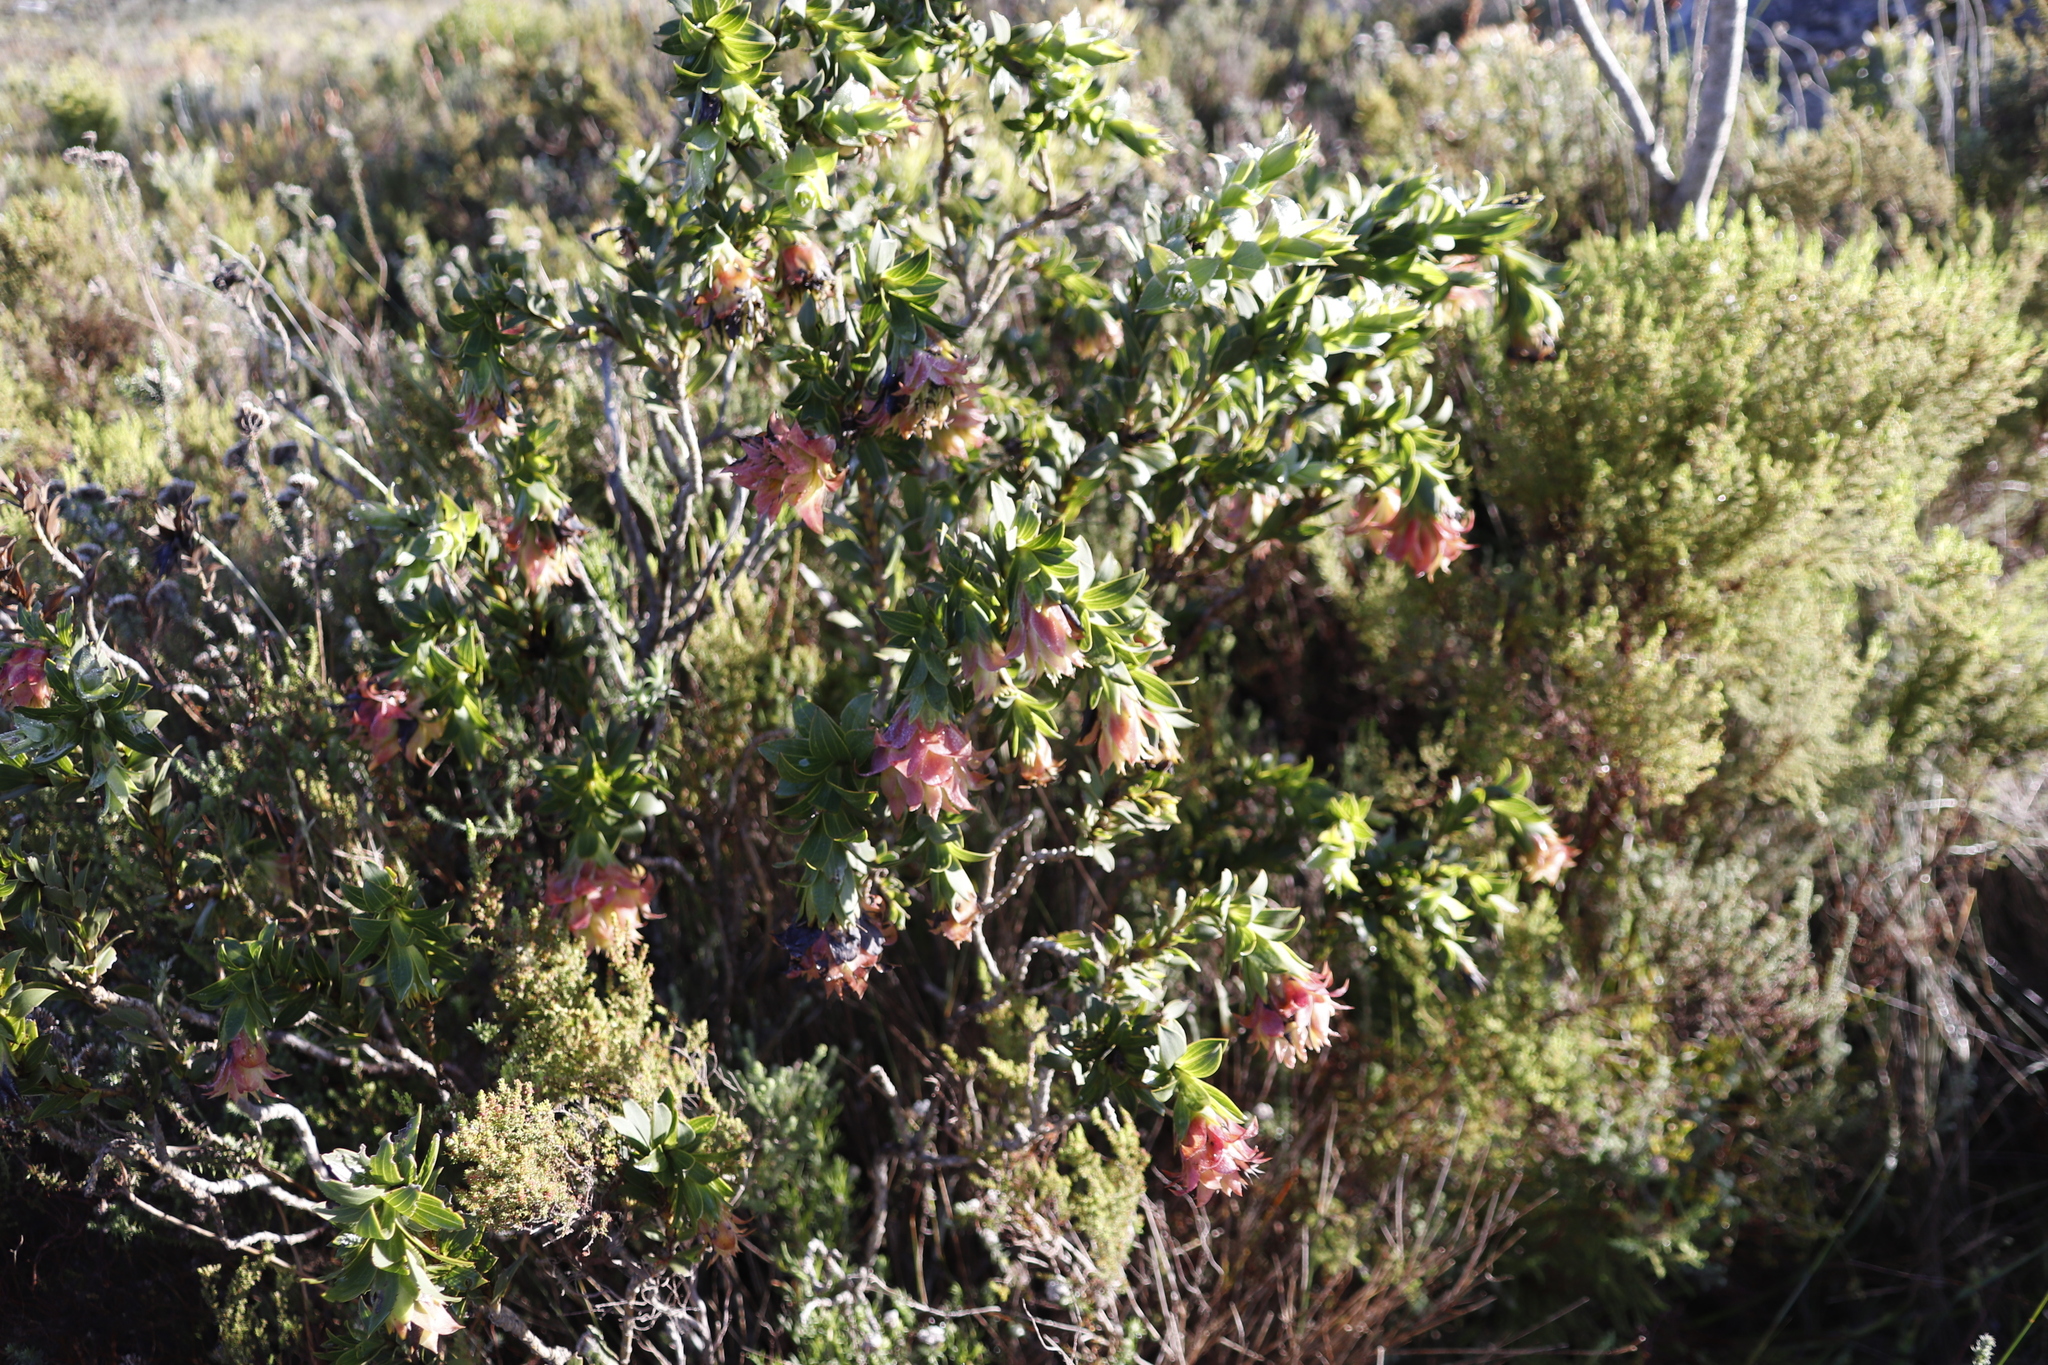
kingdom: Plantae
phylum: Tracheophyta
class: Magnoliopsida
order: Fabales
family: Fabaceae
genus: Liparia
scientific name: Liparia splendens
